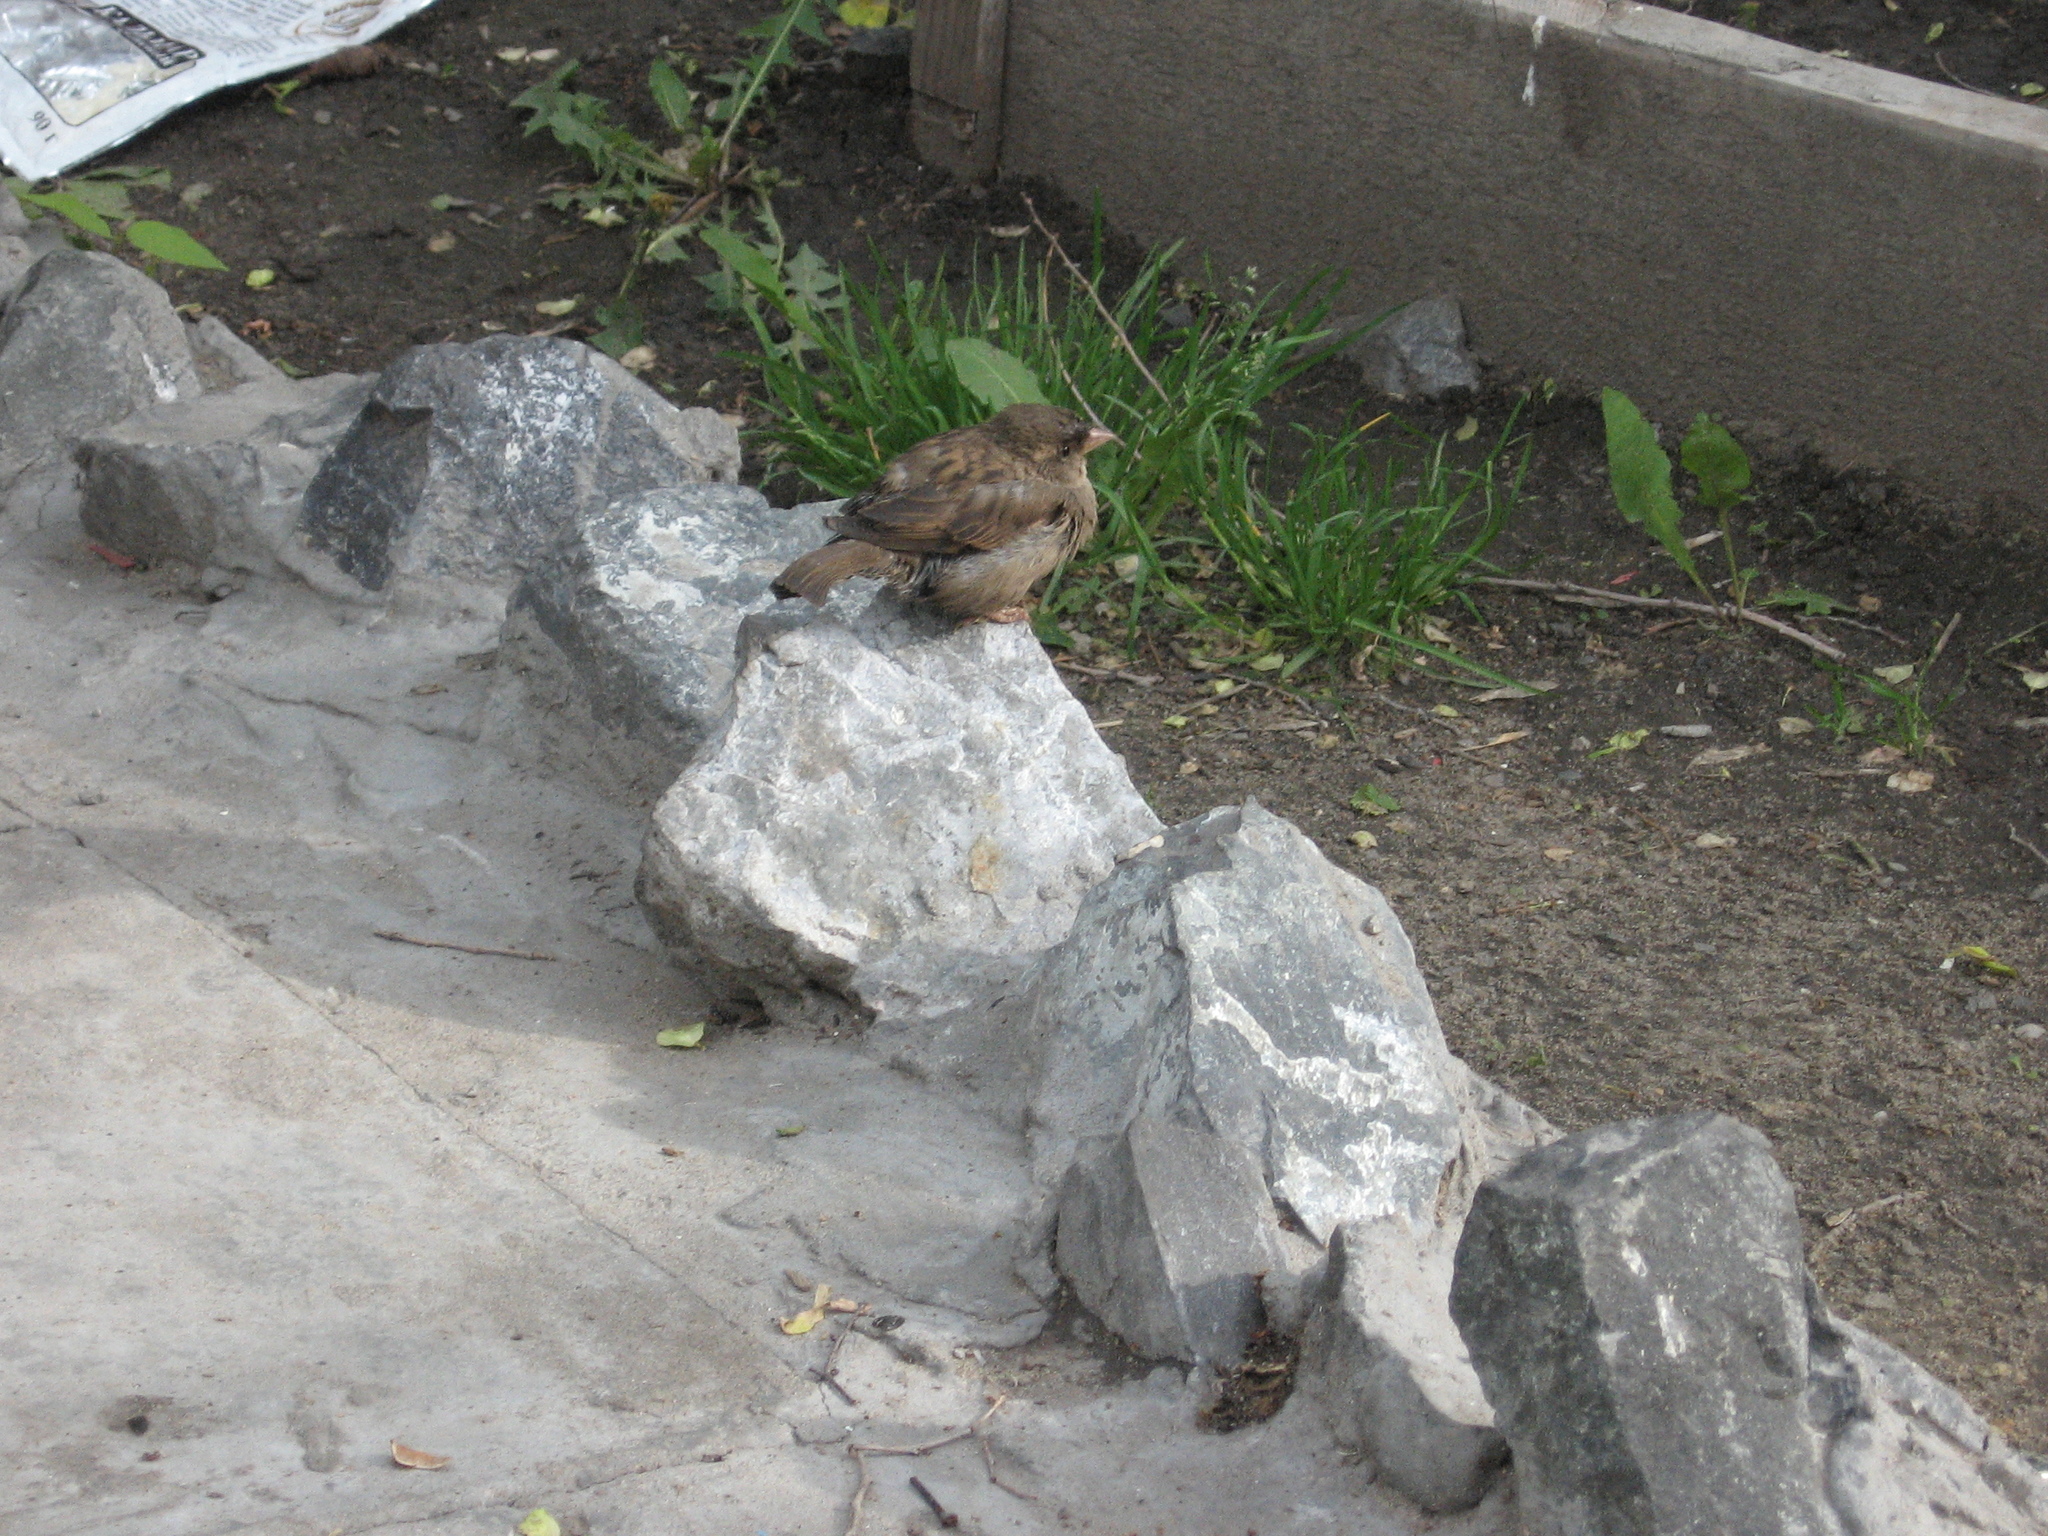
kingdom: Animalia
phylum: Chordata
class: Aves
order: Passeriformes
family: Passeridae
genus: Passer
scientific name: Passer domesticus
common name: House sparrow
